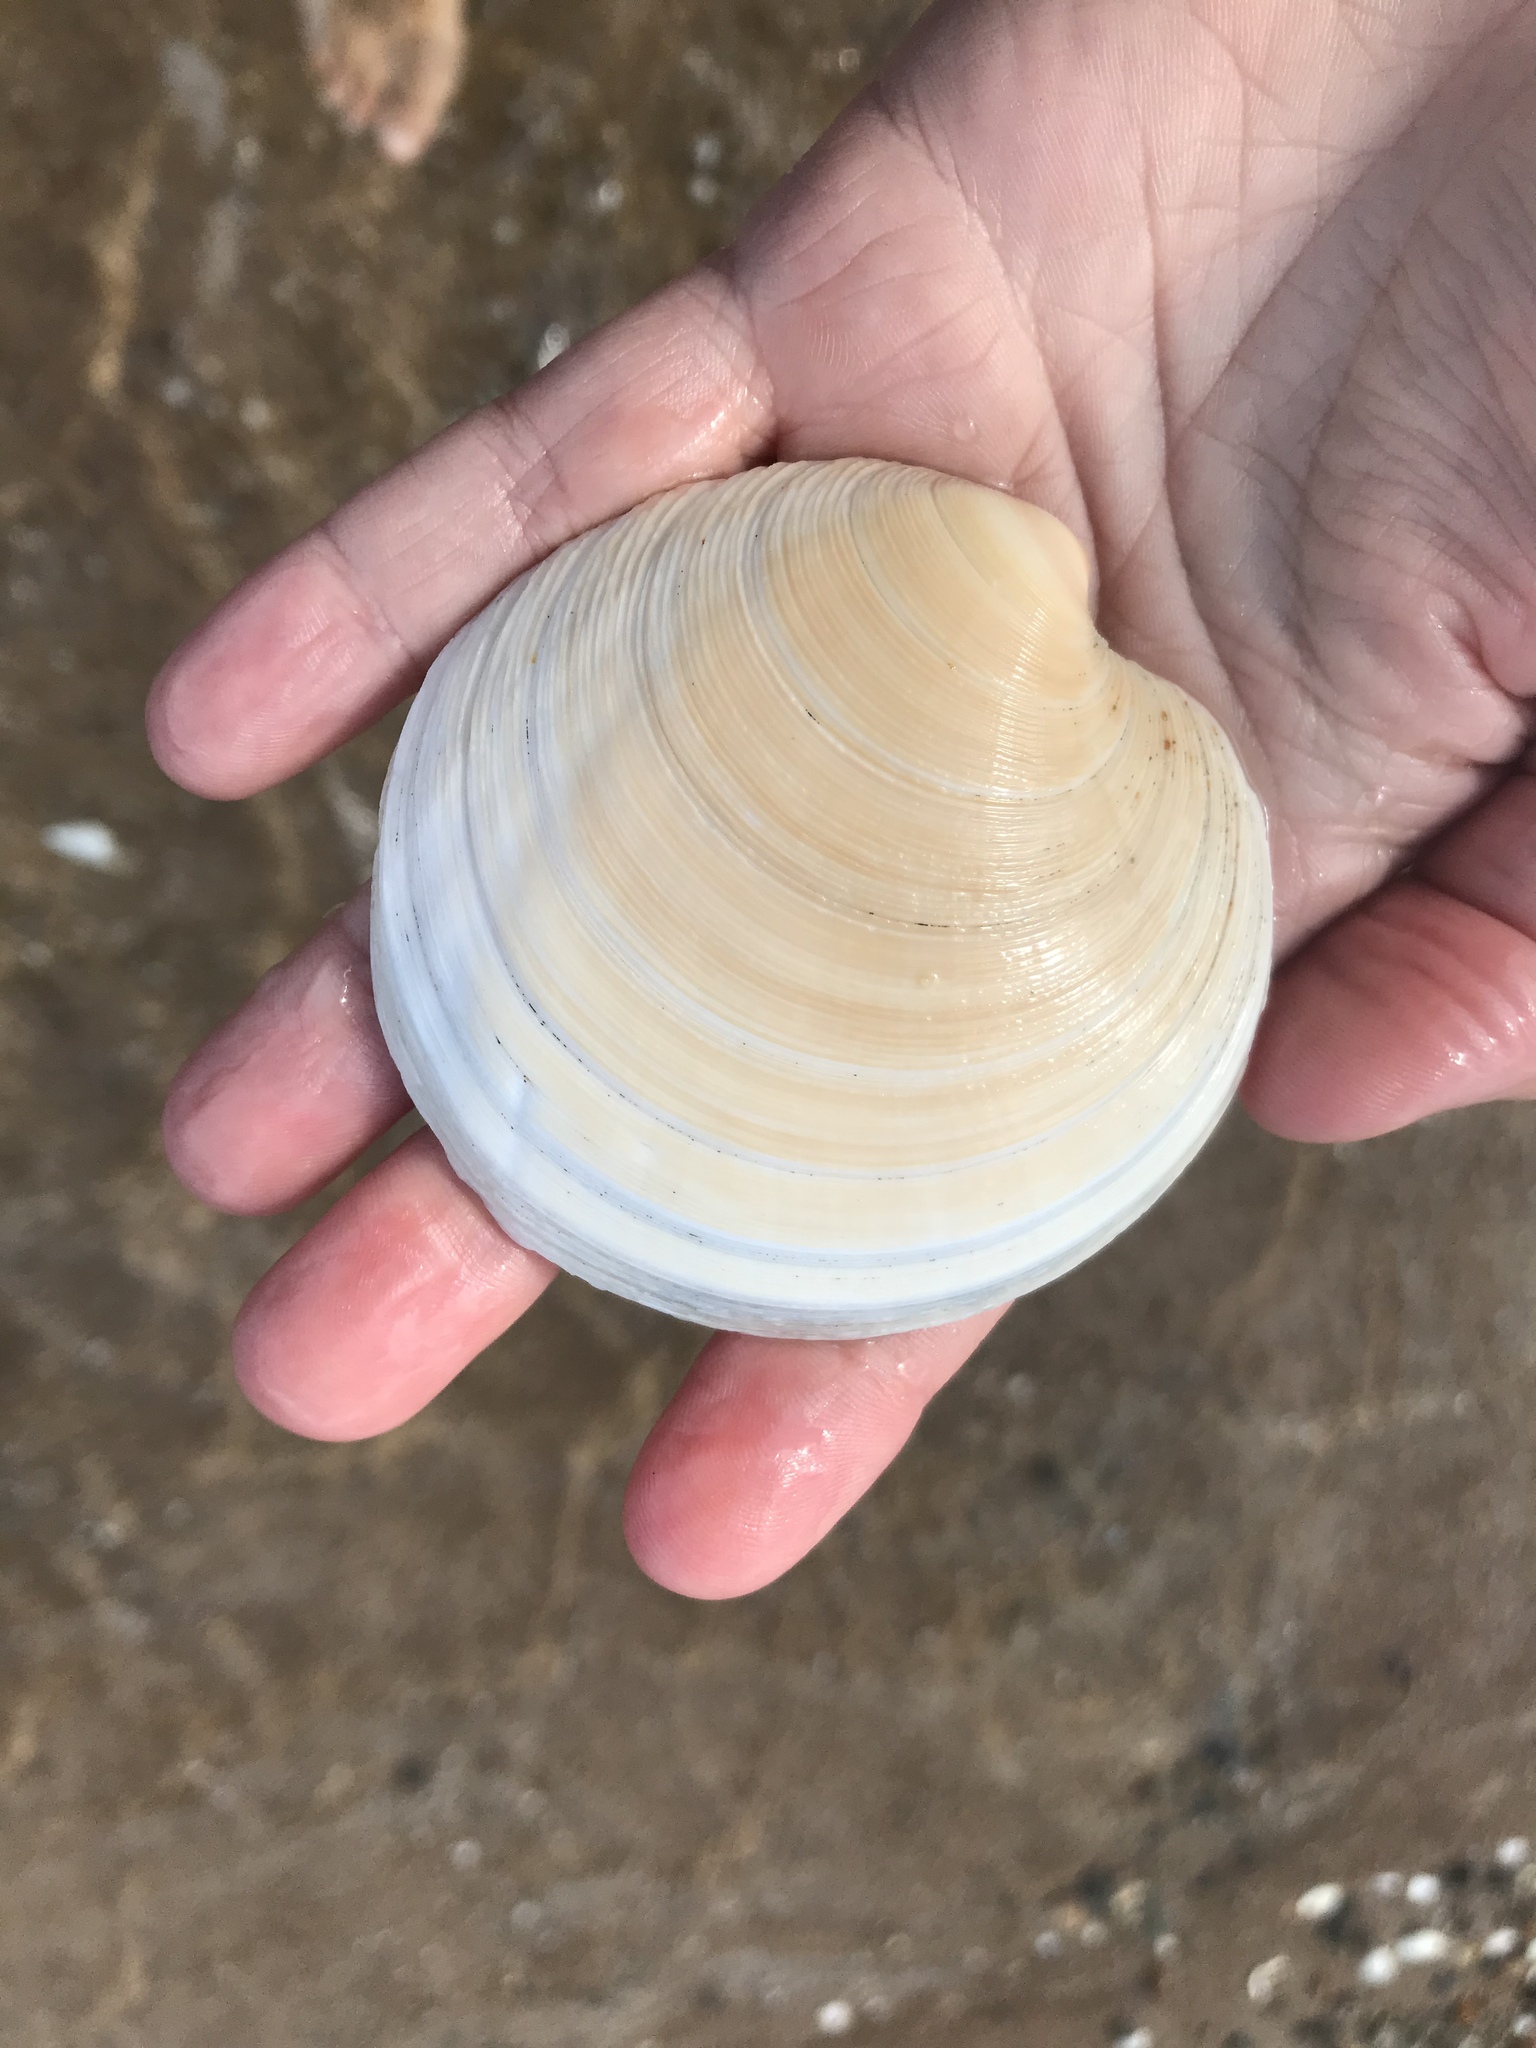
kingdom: Animalia
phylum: Mollusca
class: Bivalvia
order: Venerida
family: Veneridae
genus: Dosinia
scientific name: Dosinia anus
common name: Old-woman dosinia
